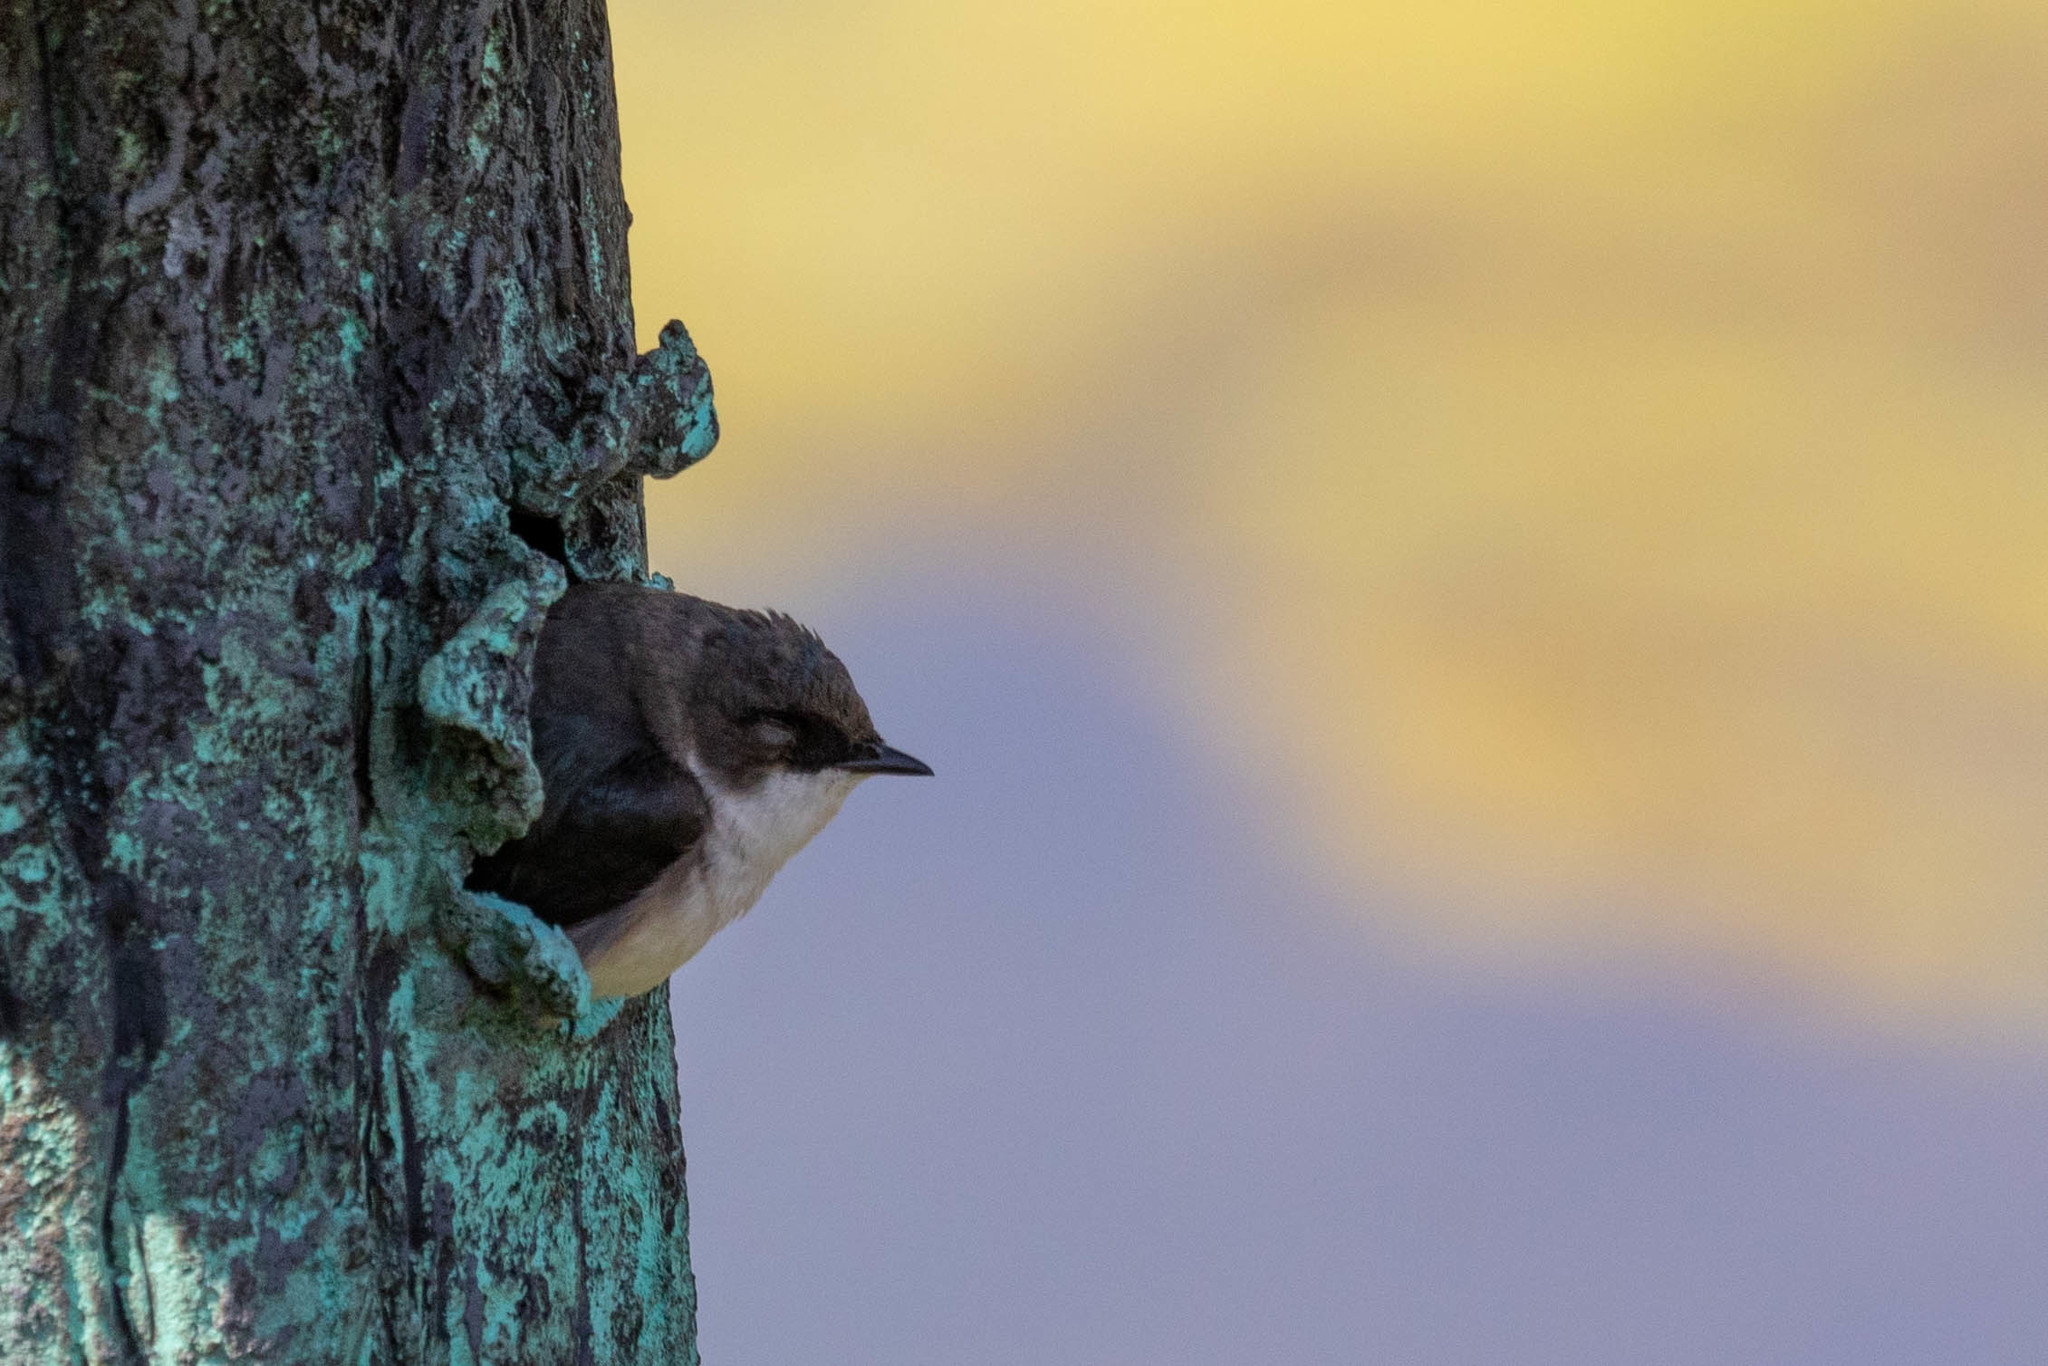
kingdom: Animalia
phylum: Chordata
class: Aves
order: Passeriformes
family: Hirundinidae
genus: Tachycineta
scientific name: Tachycineta bicolor
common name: Tree swallow
